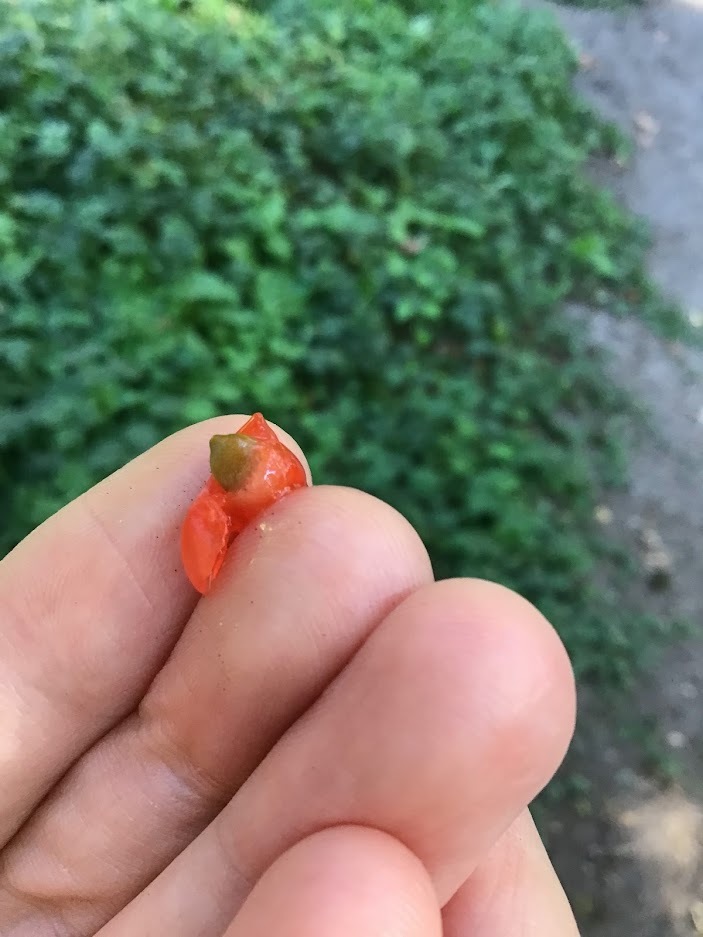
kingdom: Plantae
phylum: Tracheophyta
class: Pinopsida
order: Pinales
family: Taxaceae
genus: Taxus
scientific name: Taxus brevifolia
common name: Pacific yew
